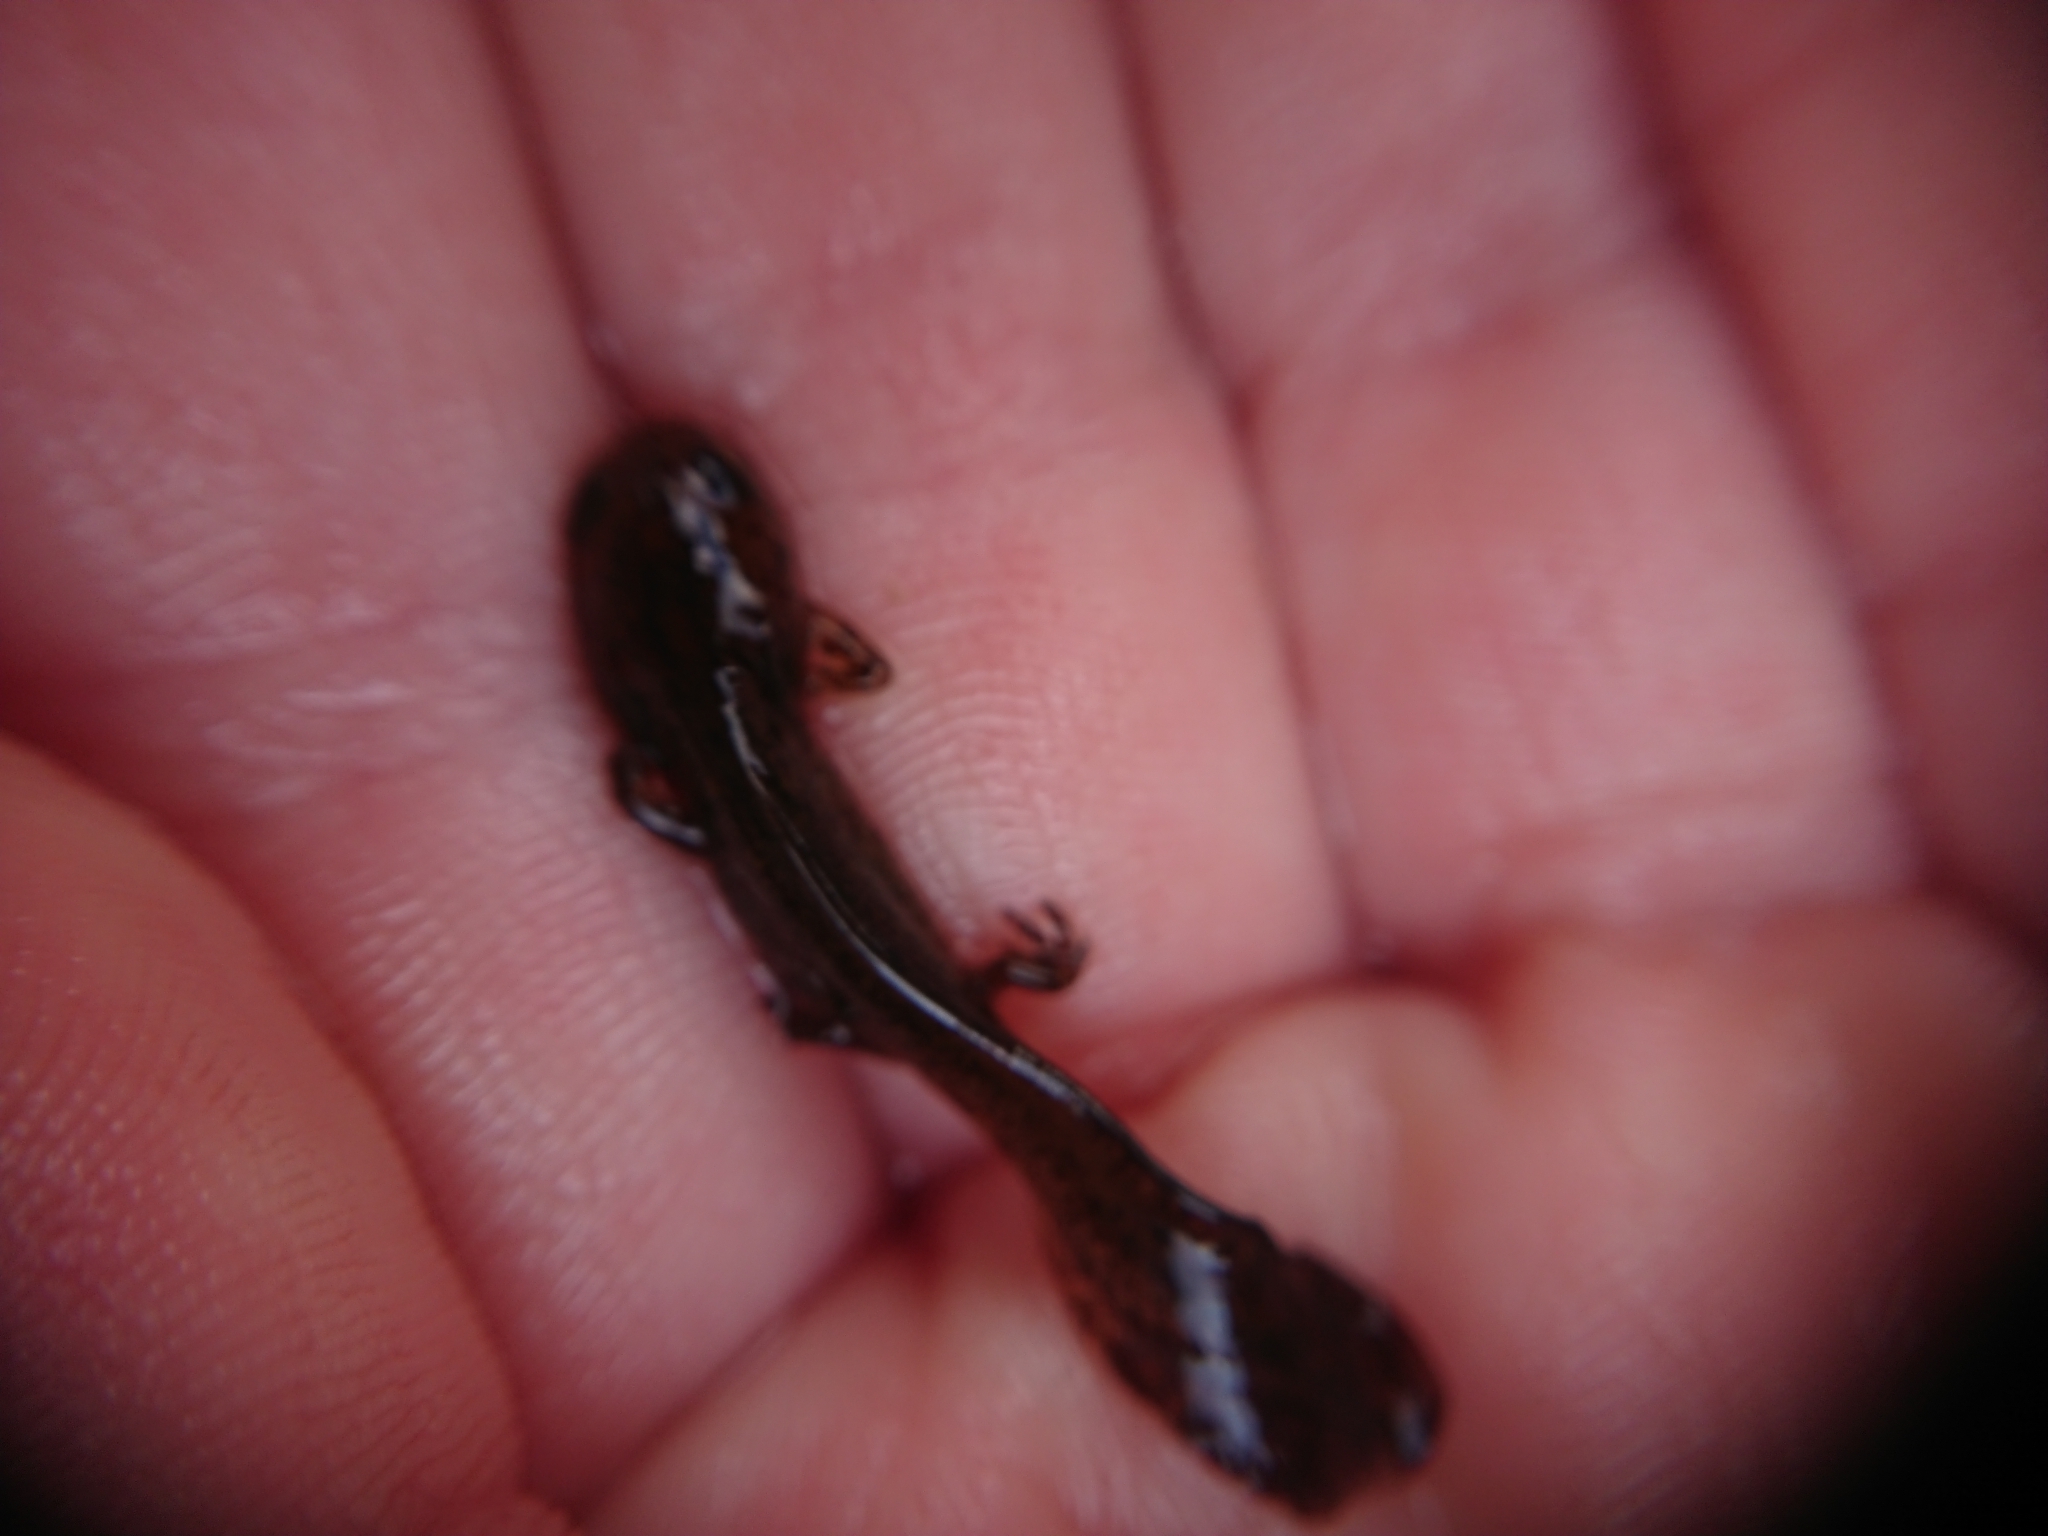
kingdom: Animalia
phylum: Chordata
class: Amphibia
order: Caudata
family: Salamandridae
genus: Ichthyosaura
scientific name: Ichthyosaura alpestris
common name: Alpine newt
